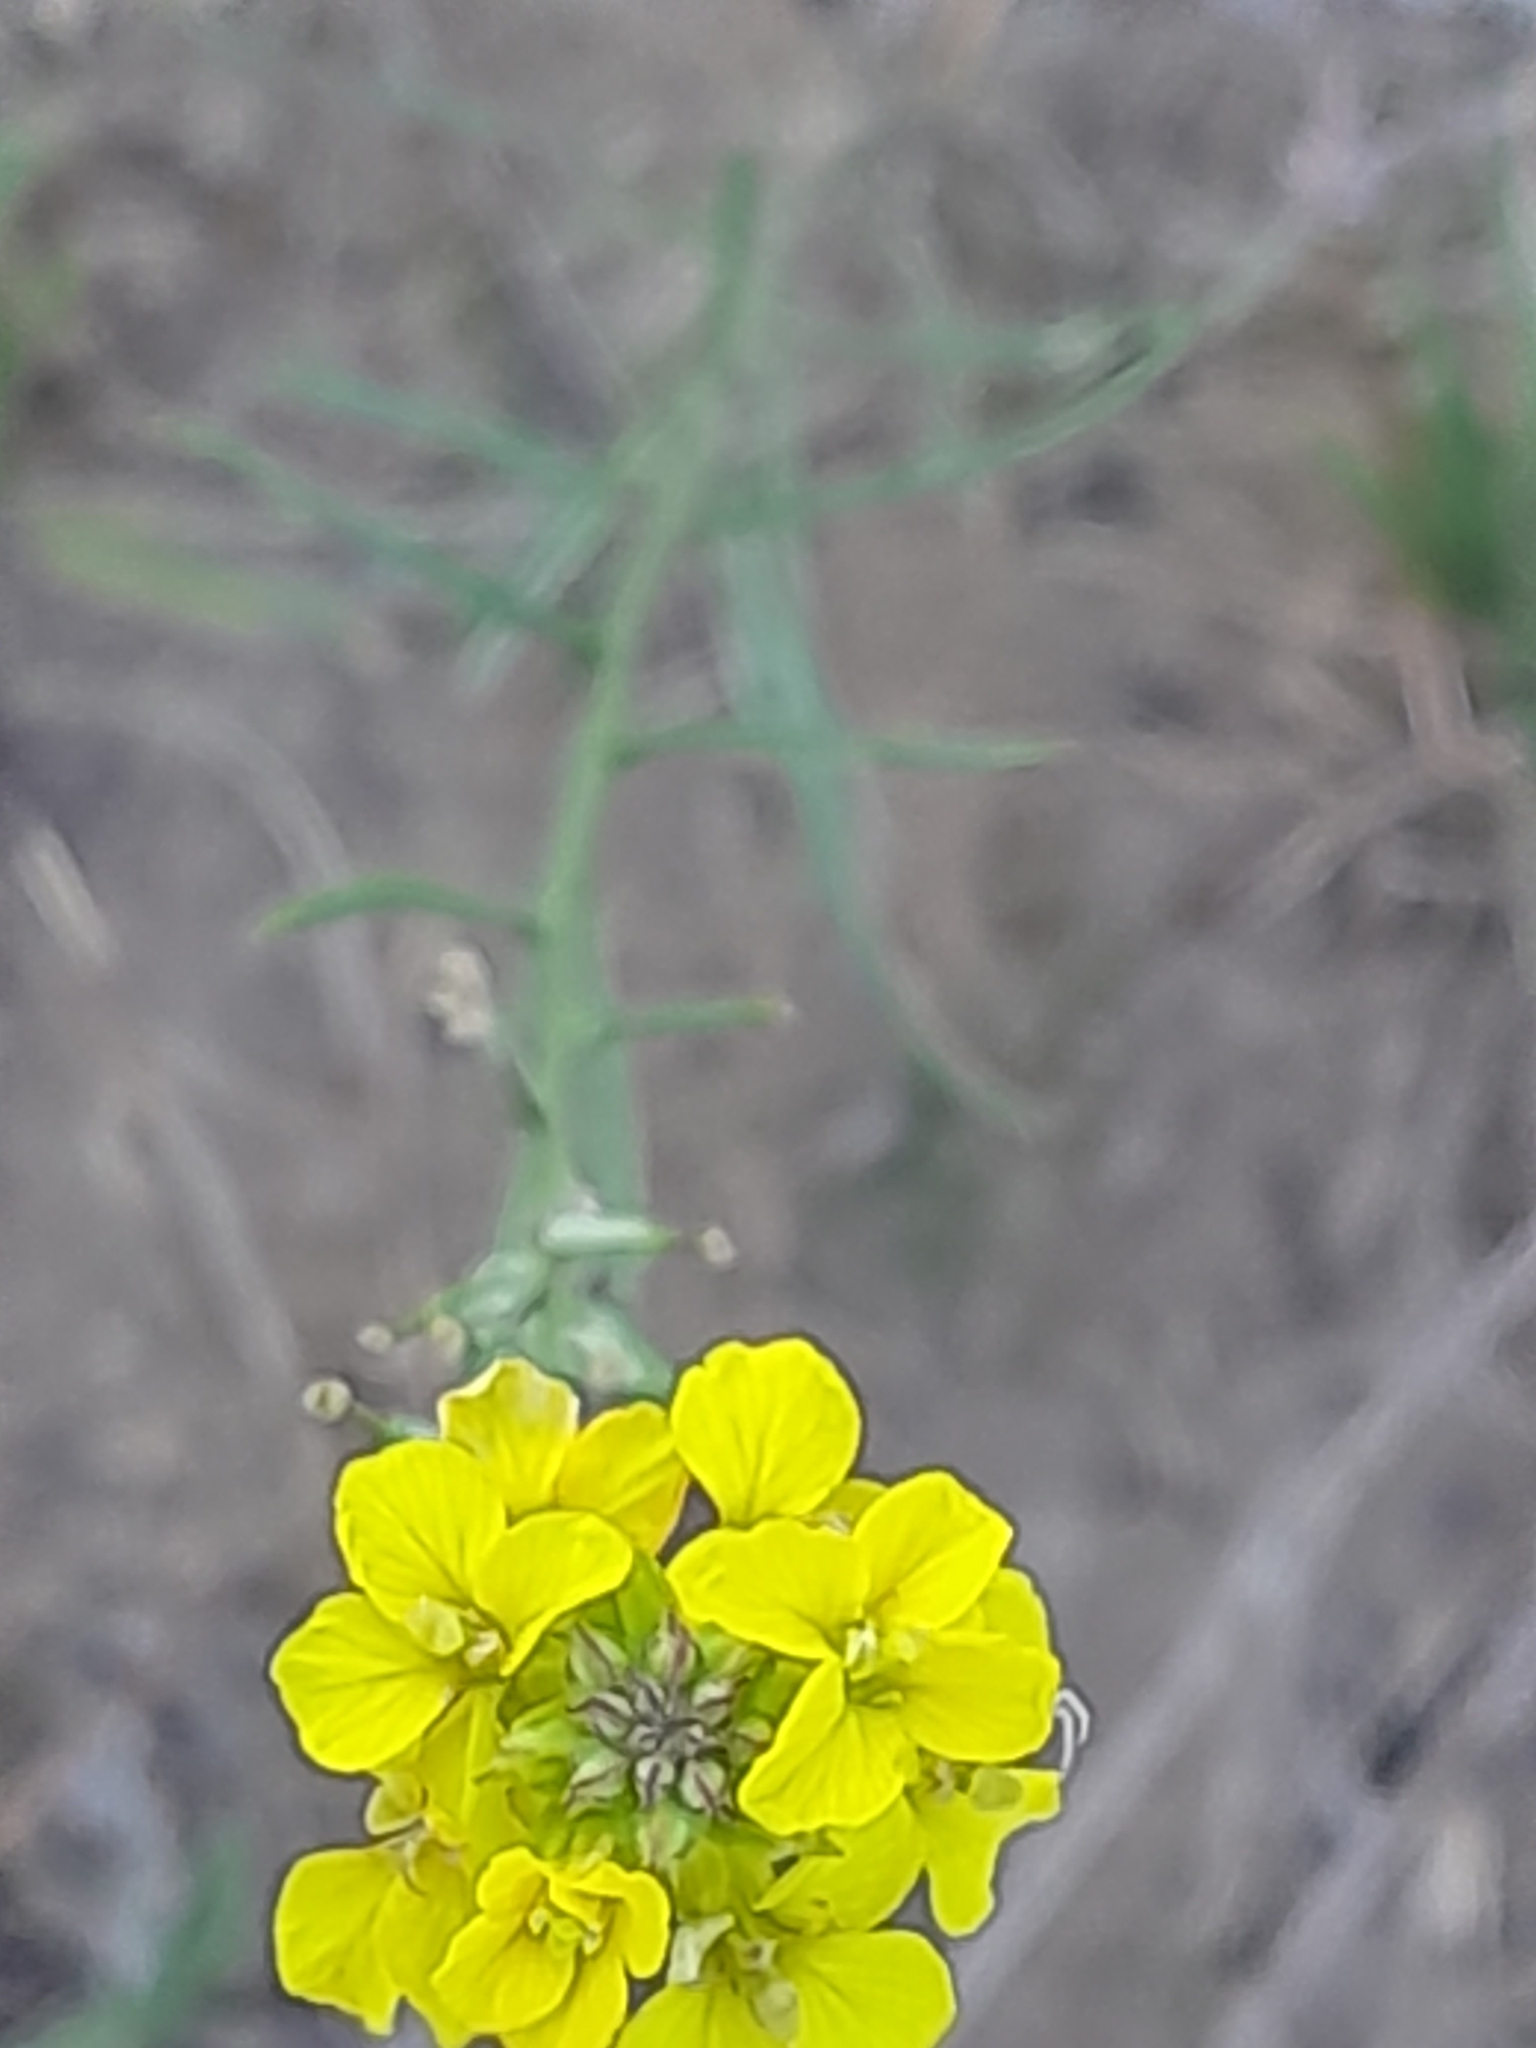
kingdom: Plantae
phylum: Tracheophyta
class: Magnoliopsida
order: Brassicales
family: Brassicaceae
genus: Erysimum
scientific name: Erysimum canum
